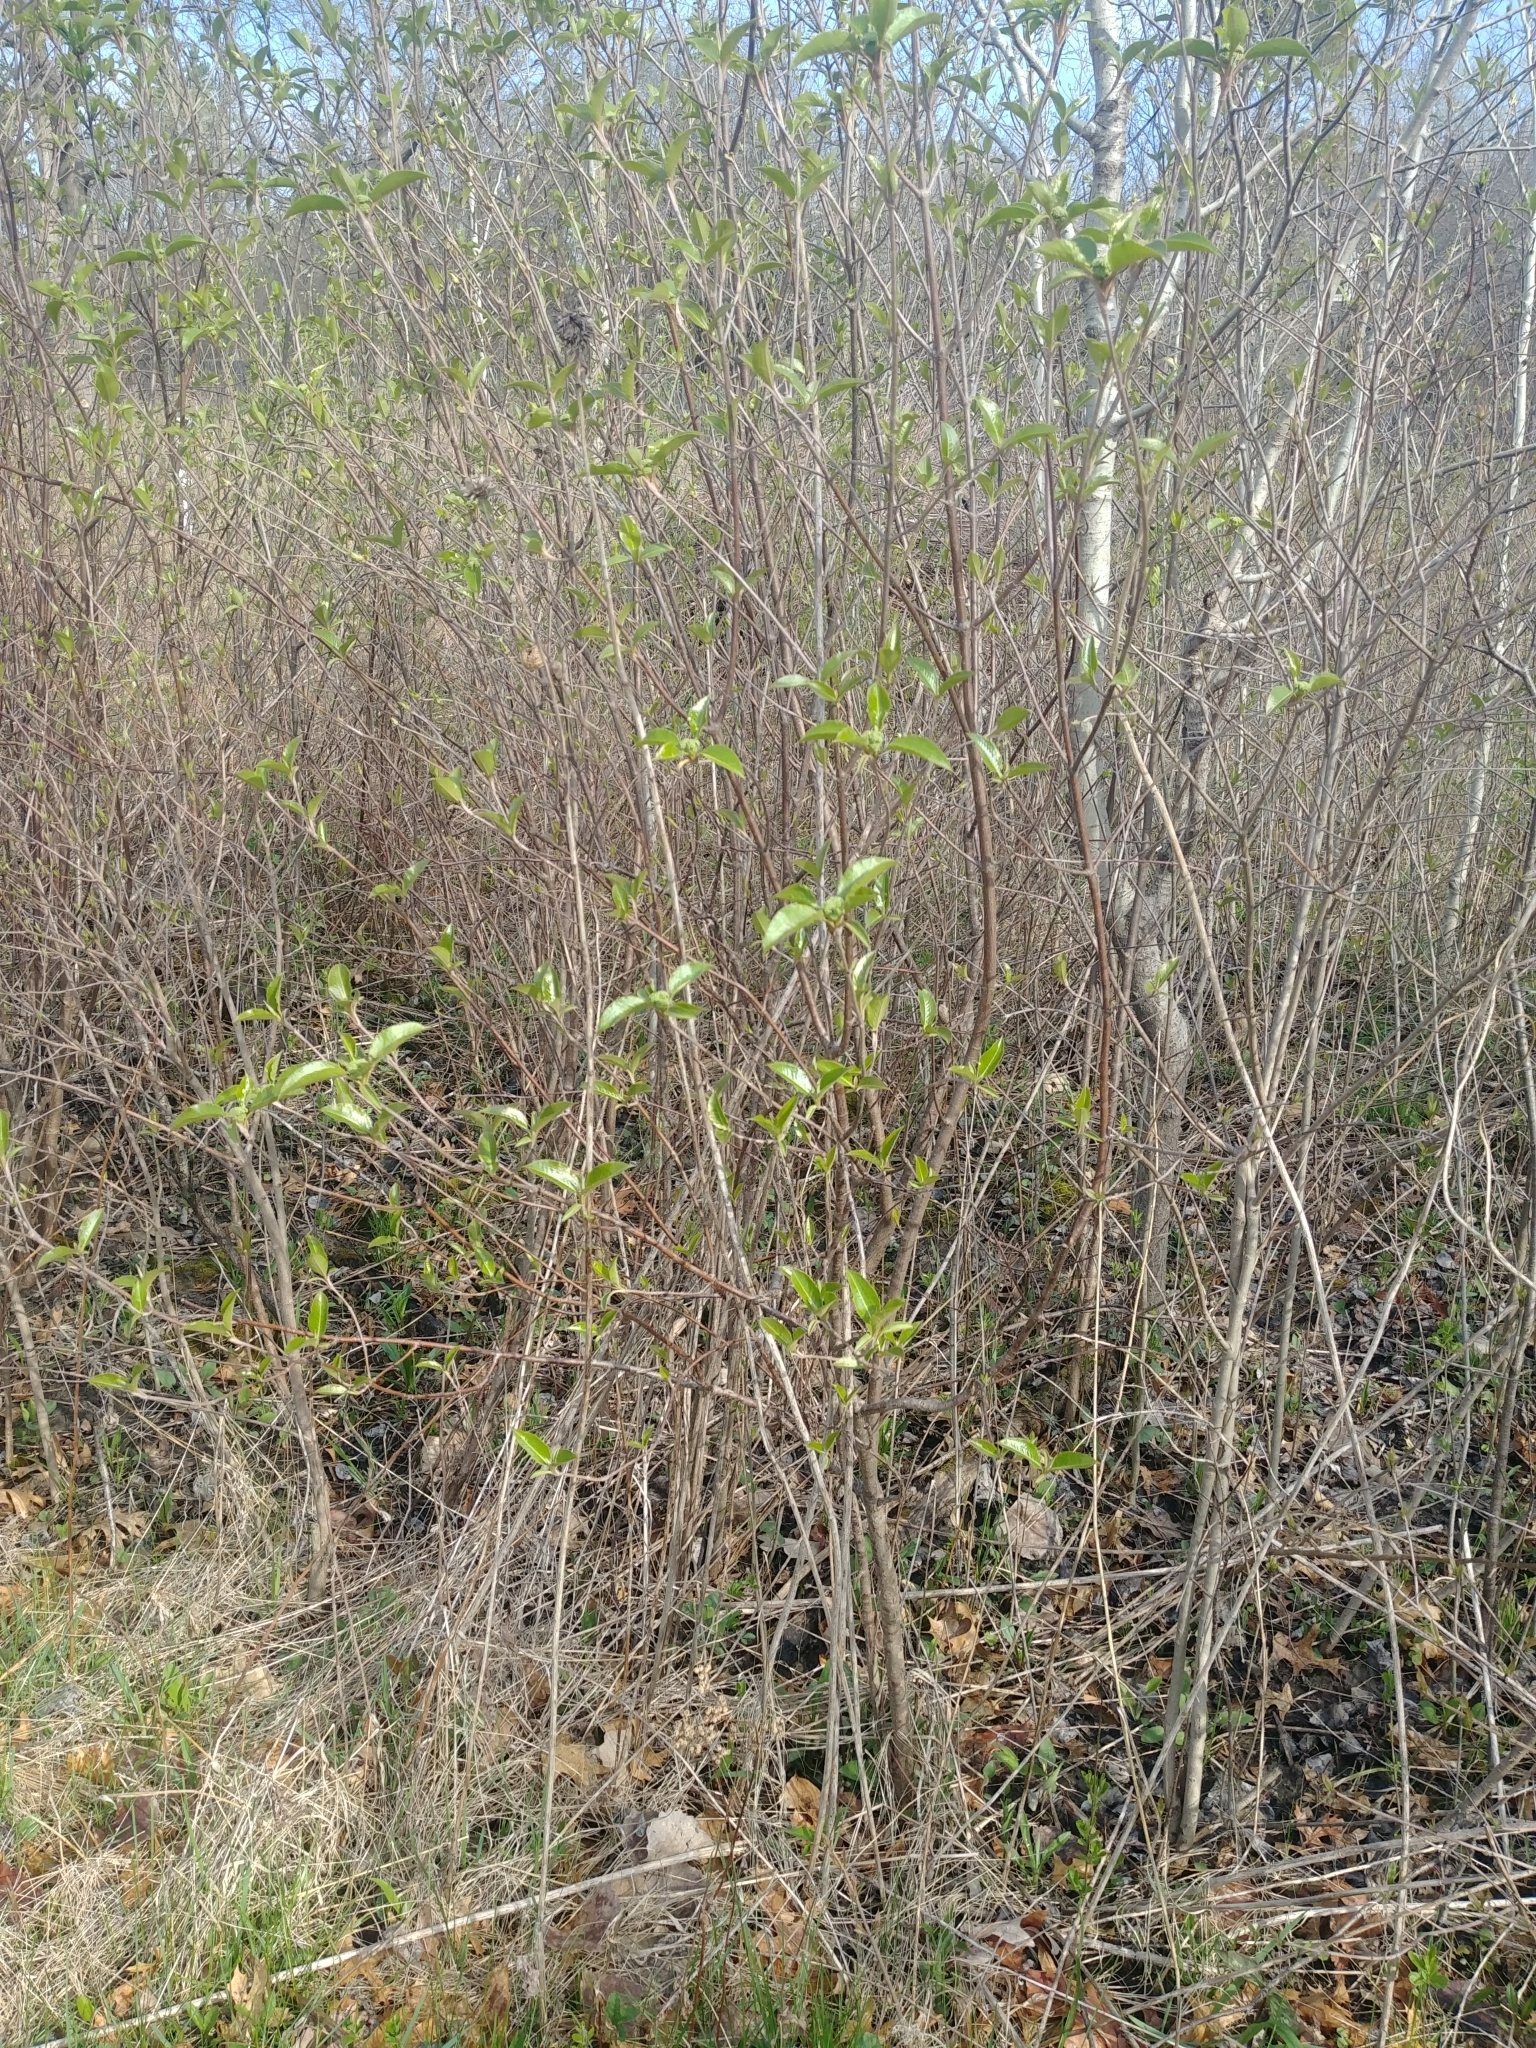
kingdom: Plantae
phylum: Tracheophyta
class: Magnoliopsida
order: Dipsacales
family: Viburnaceae
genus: Viburnum
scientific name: Viburnum lentago
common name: Black haw
